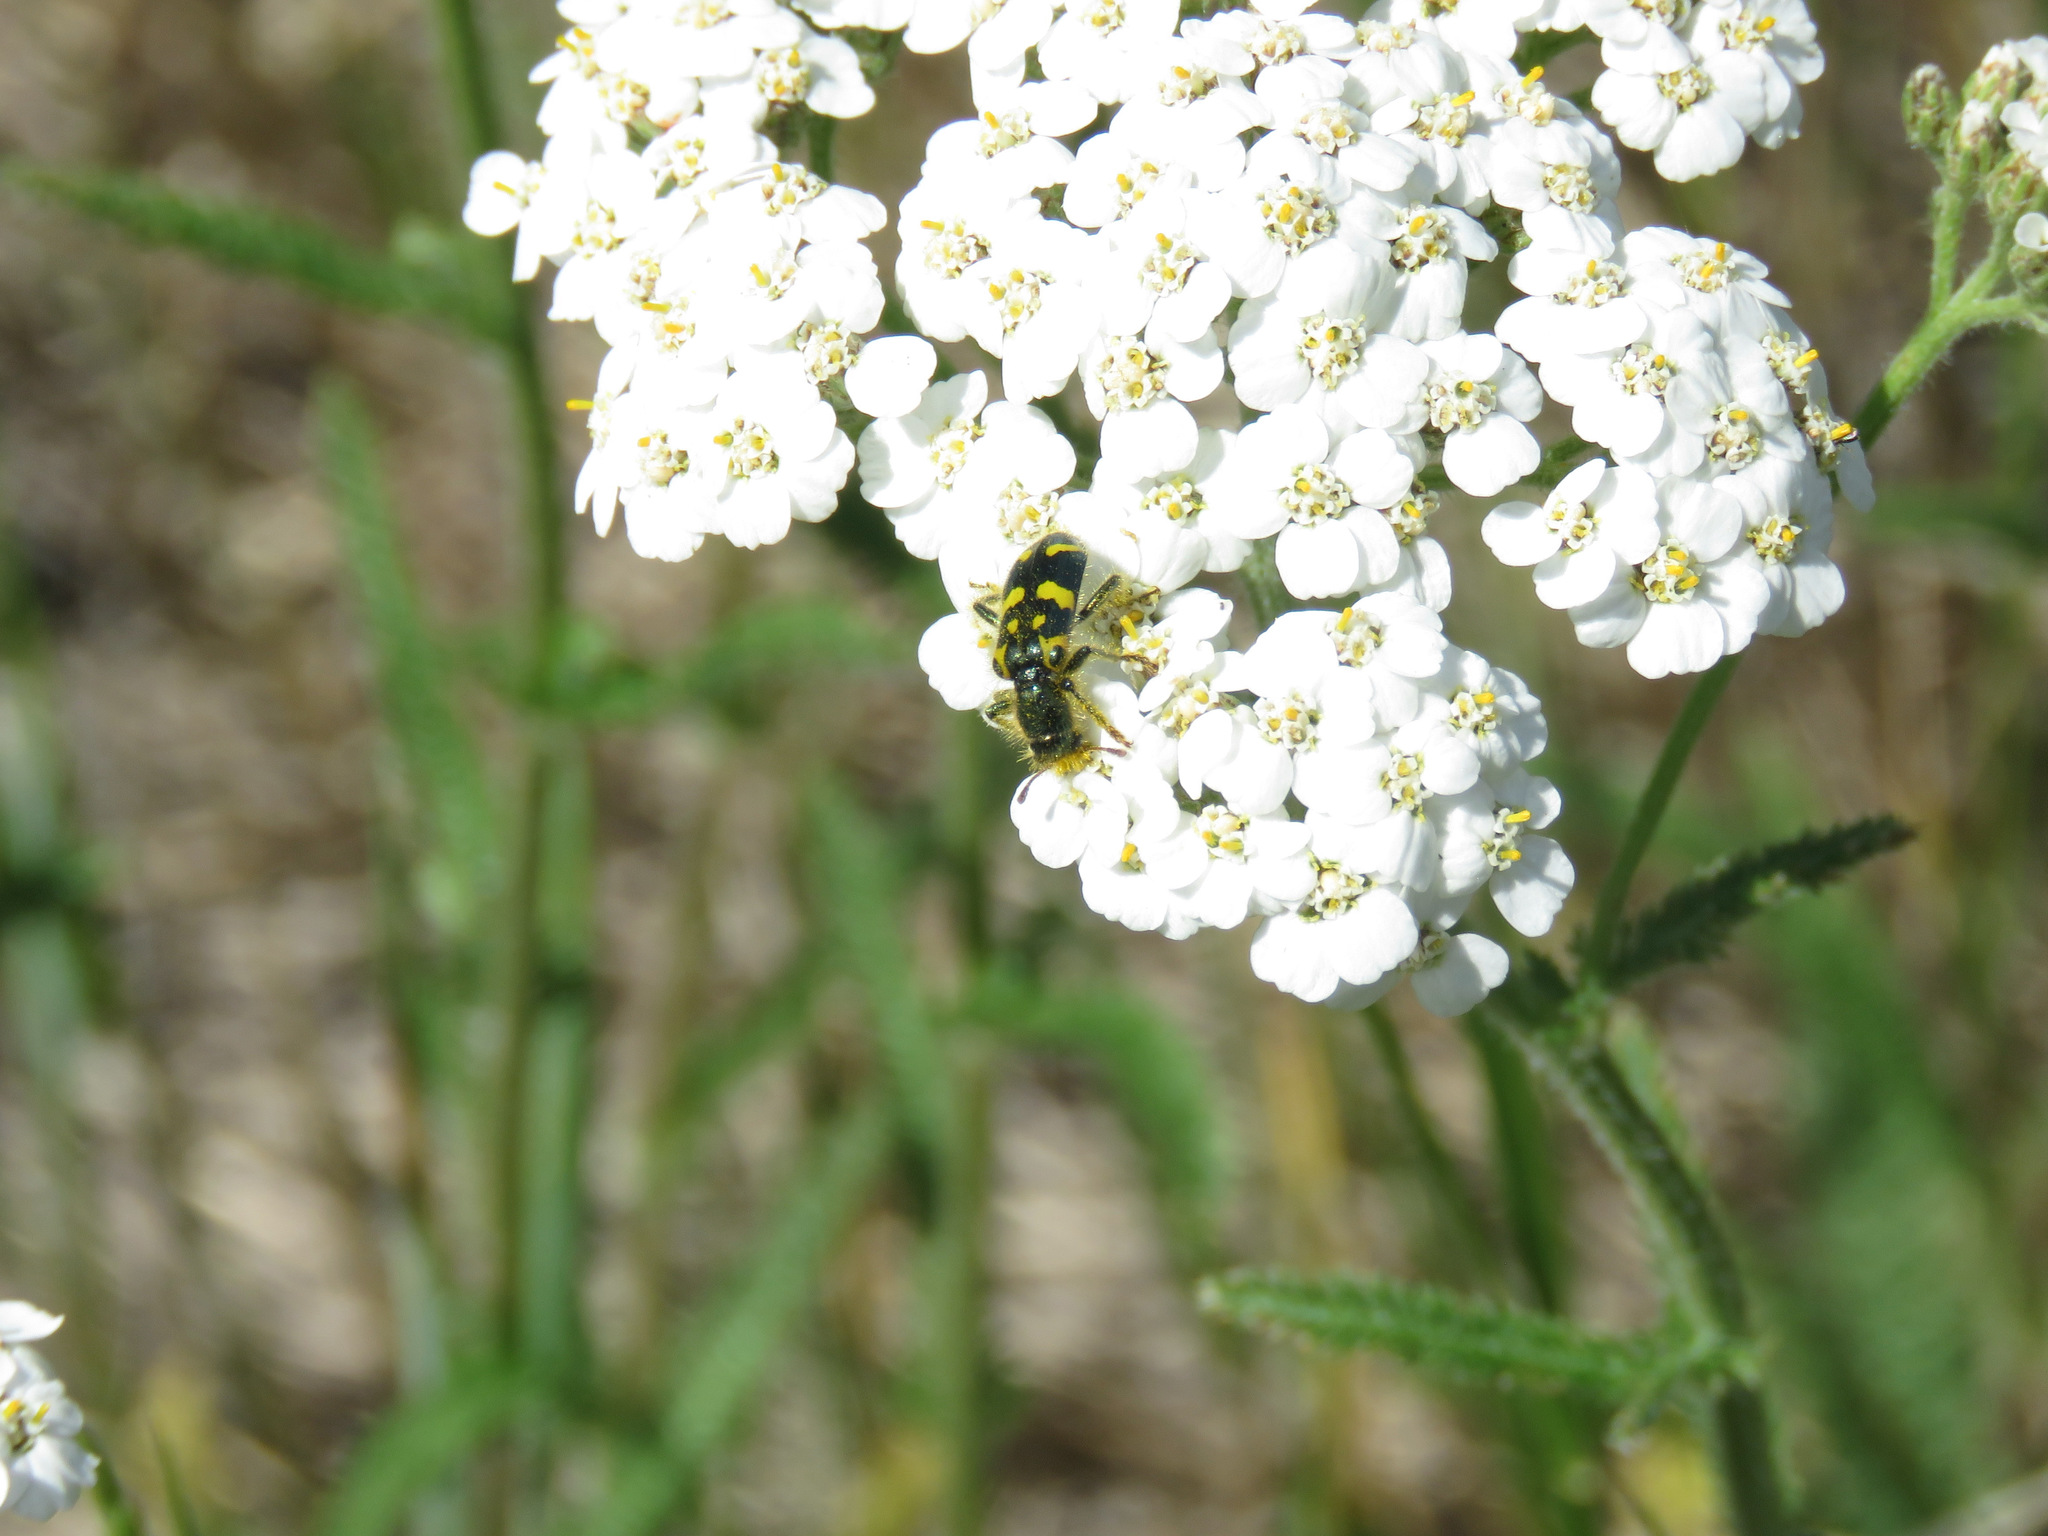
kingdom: Animalia
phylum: Arthropoda
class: Insecta
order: Coleoptera
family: Cleridae
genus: Trichodes
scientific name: Trichodes ornatus
